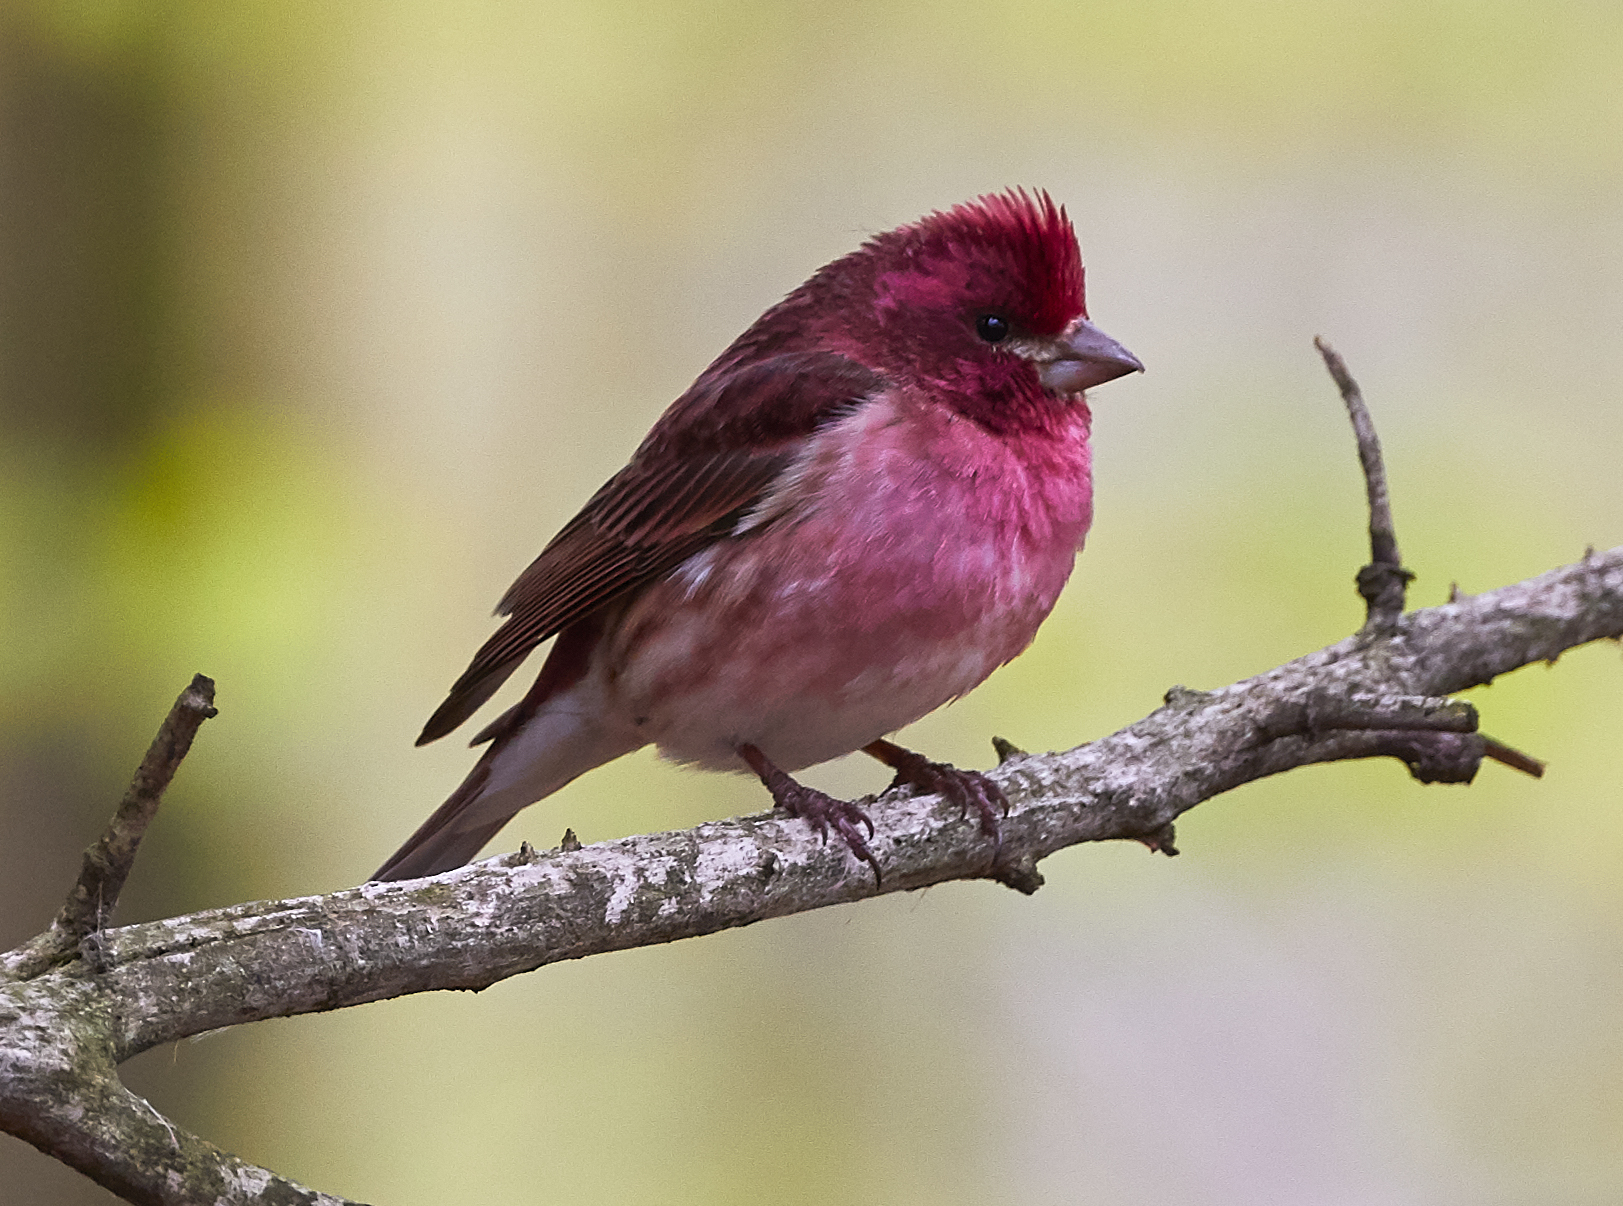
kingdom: Animalia
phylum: Chordata
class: Aves
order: Passeriformes
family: Fringillidae
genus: Haemorhous
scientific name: Haemorhous purpureus
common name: Purple finch
